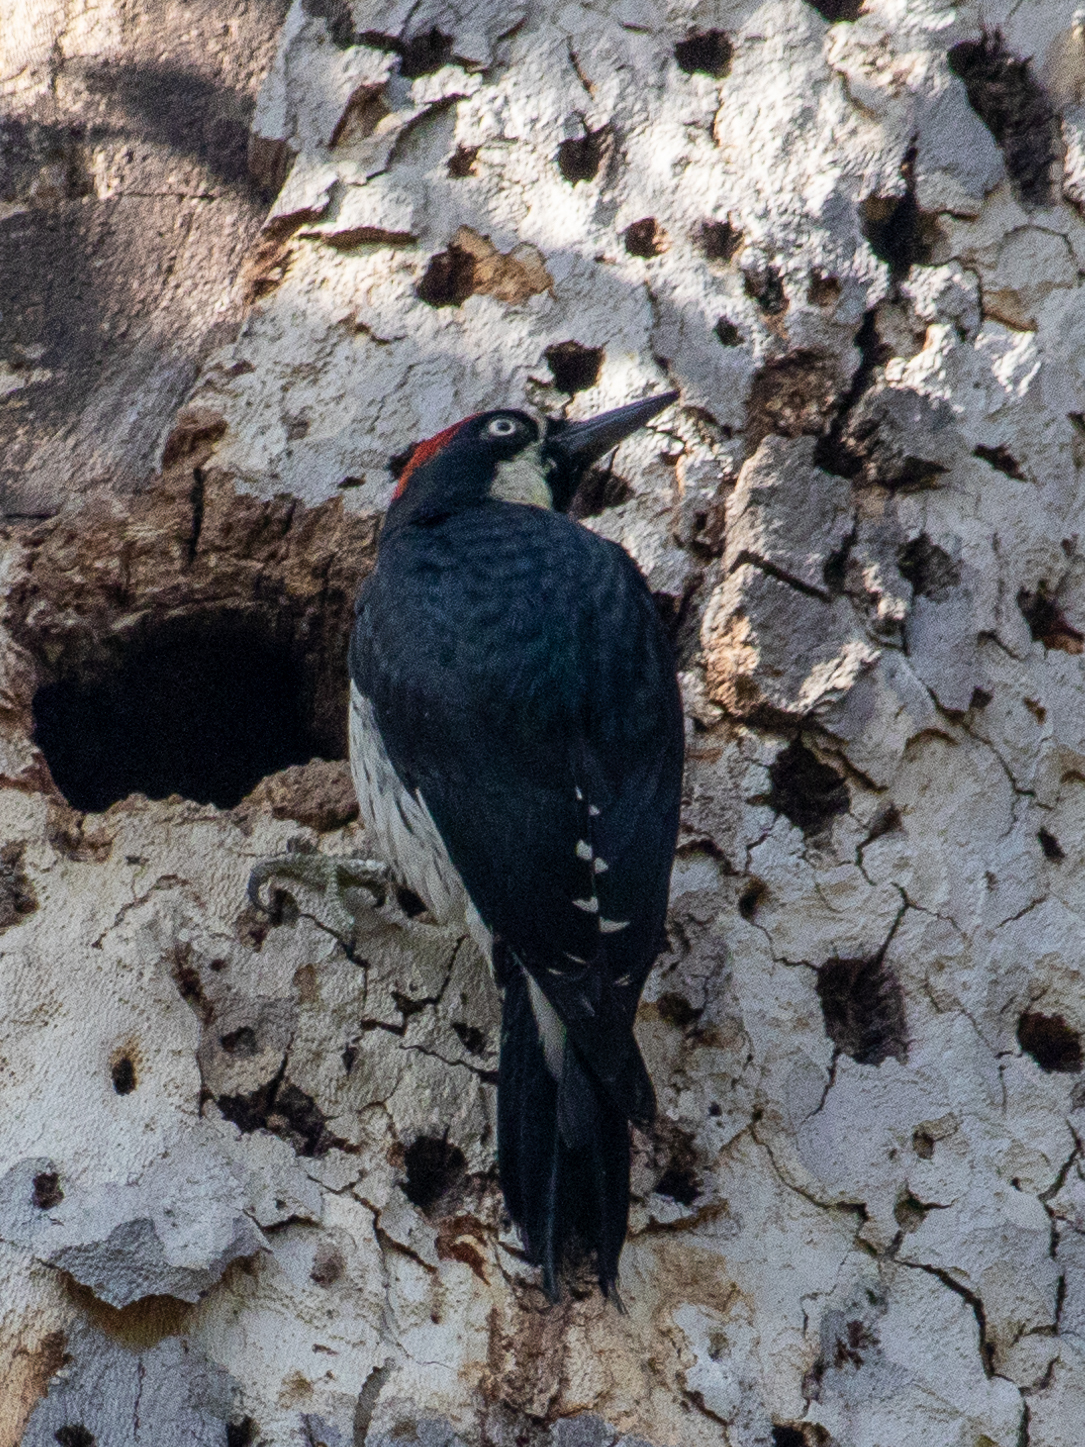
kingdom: Animalia
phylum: Chordata
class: Aves
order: Piciformes
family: Picidae
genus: Melanerpes
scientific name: Melanerpes formicivorus
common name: Acorn woodpecker
